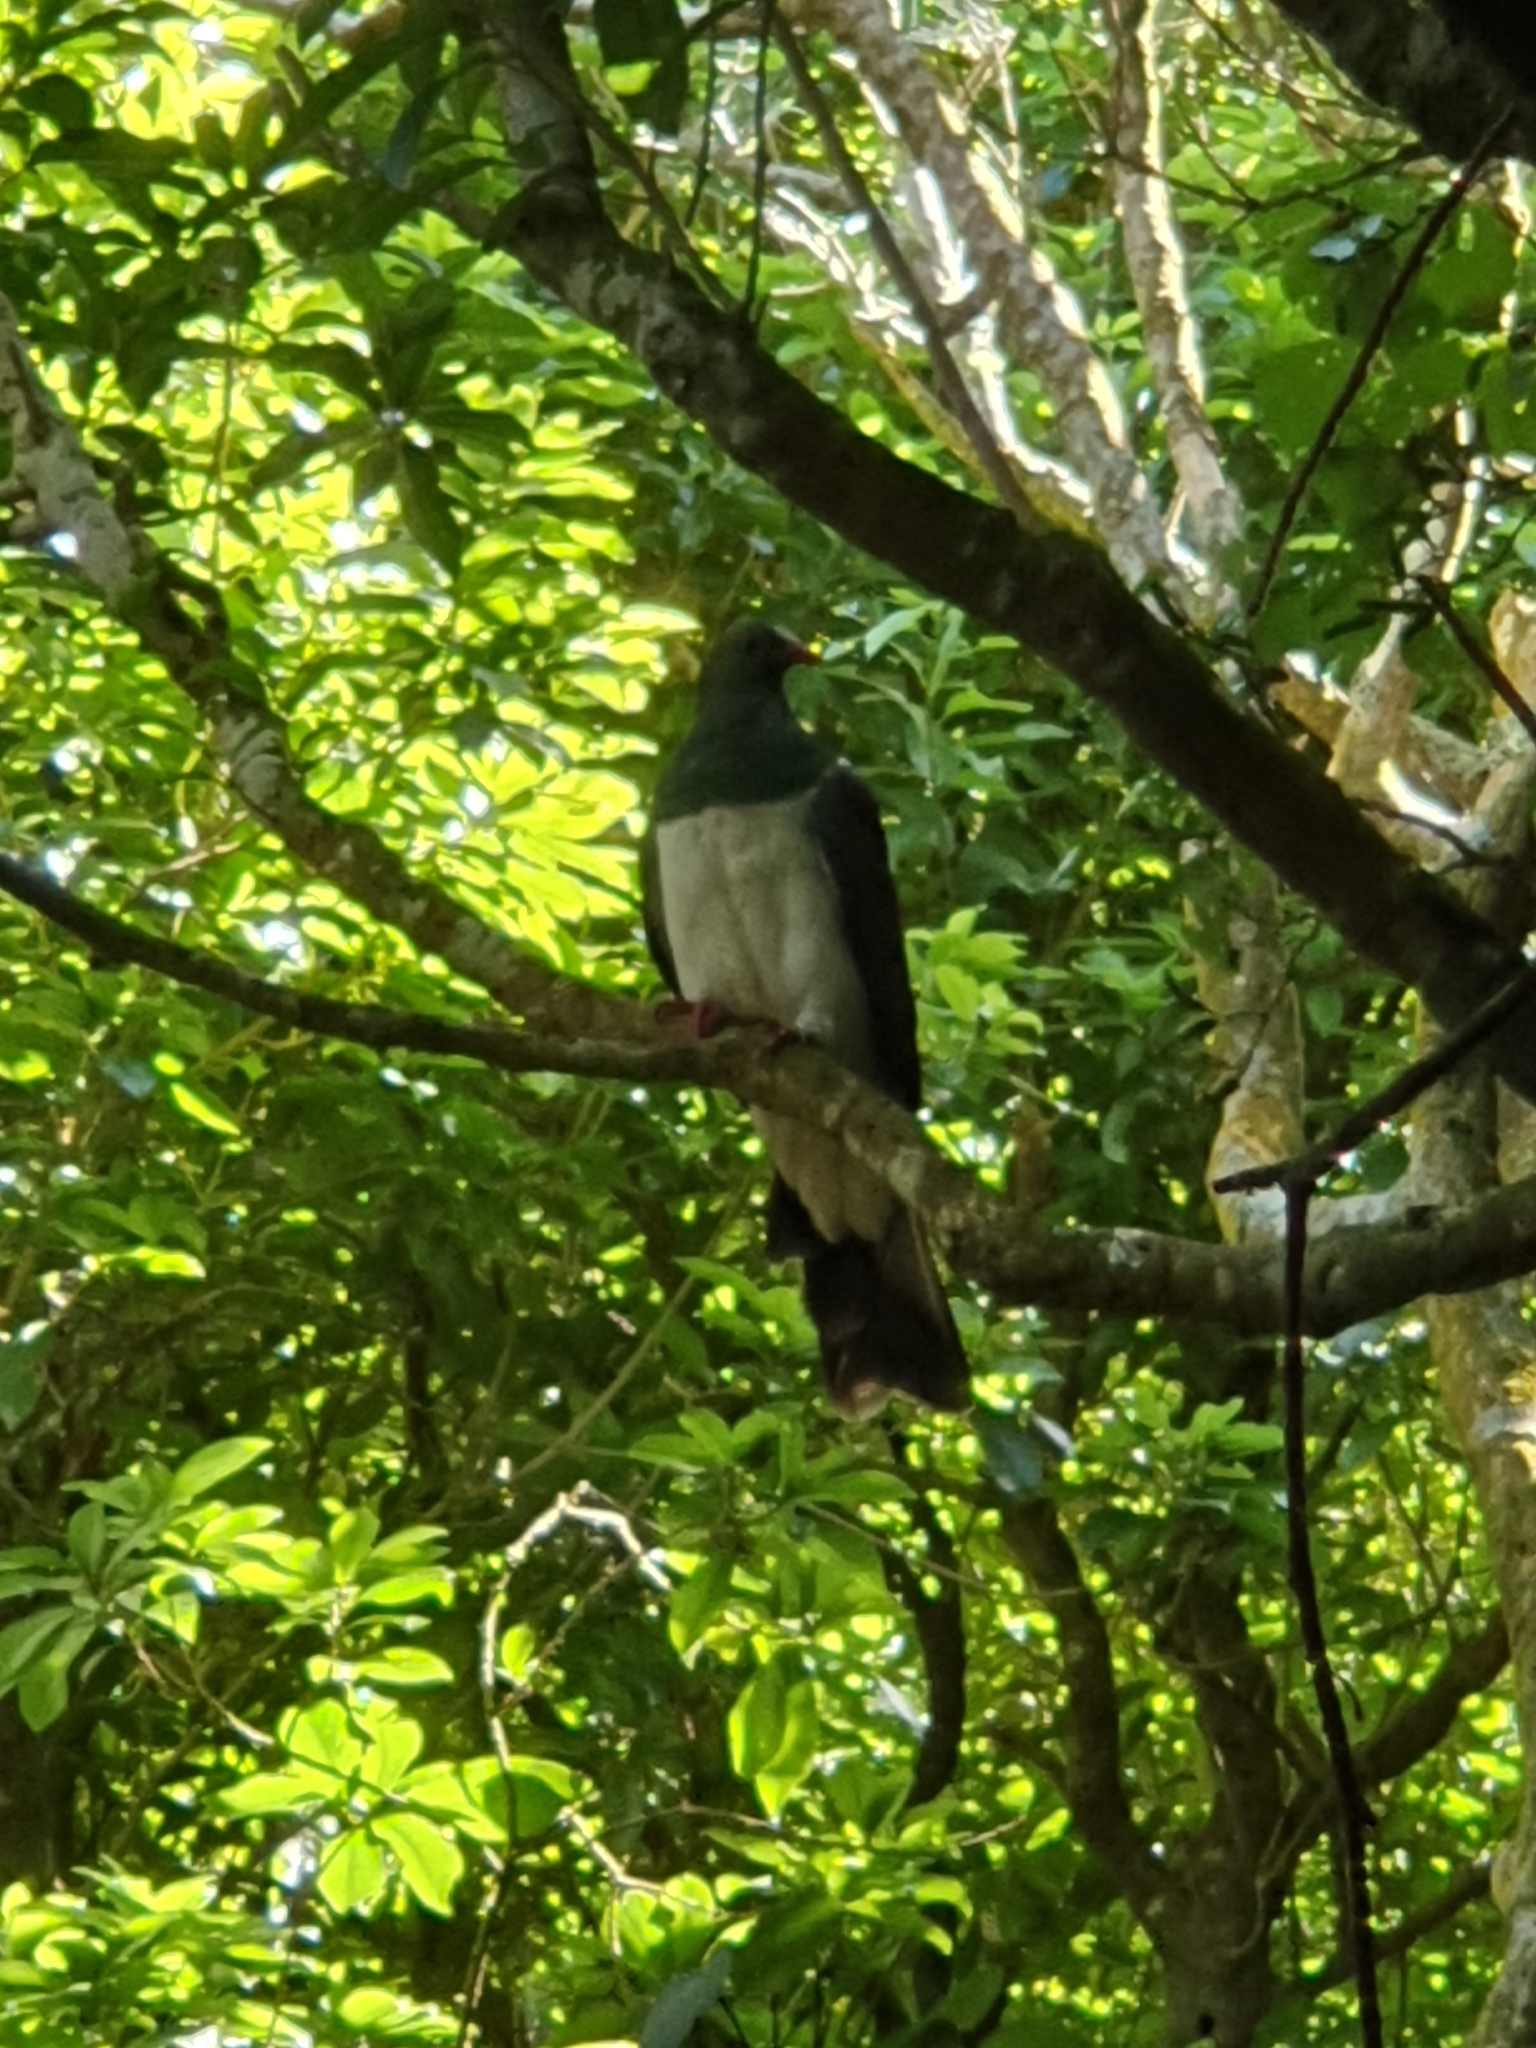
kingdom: Animalia
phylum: Chordata
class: Aves
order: Columbiformes
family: Columbidae
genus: Hemiphaga
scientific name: Hemiphaga novaeseelandiae
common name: New zealand pigeon
